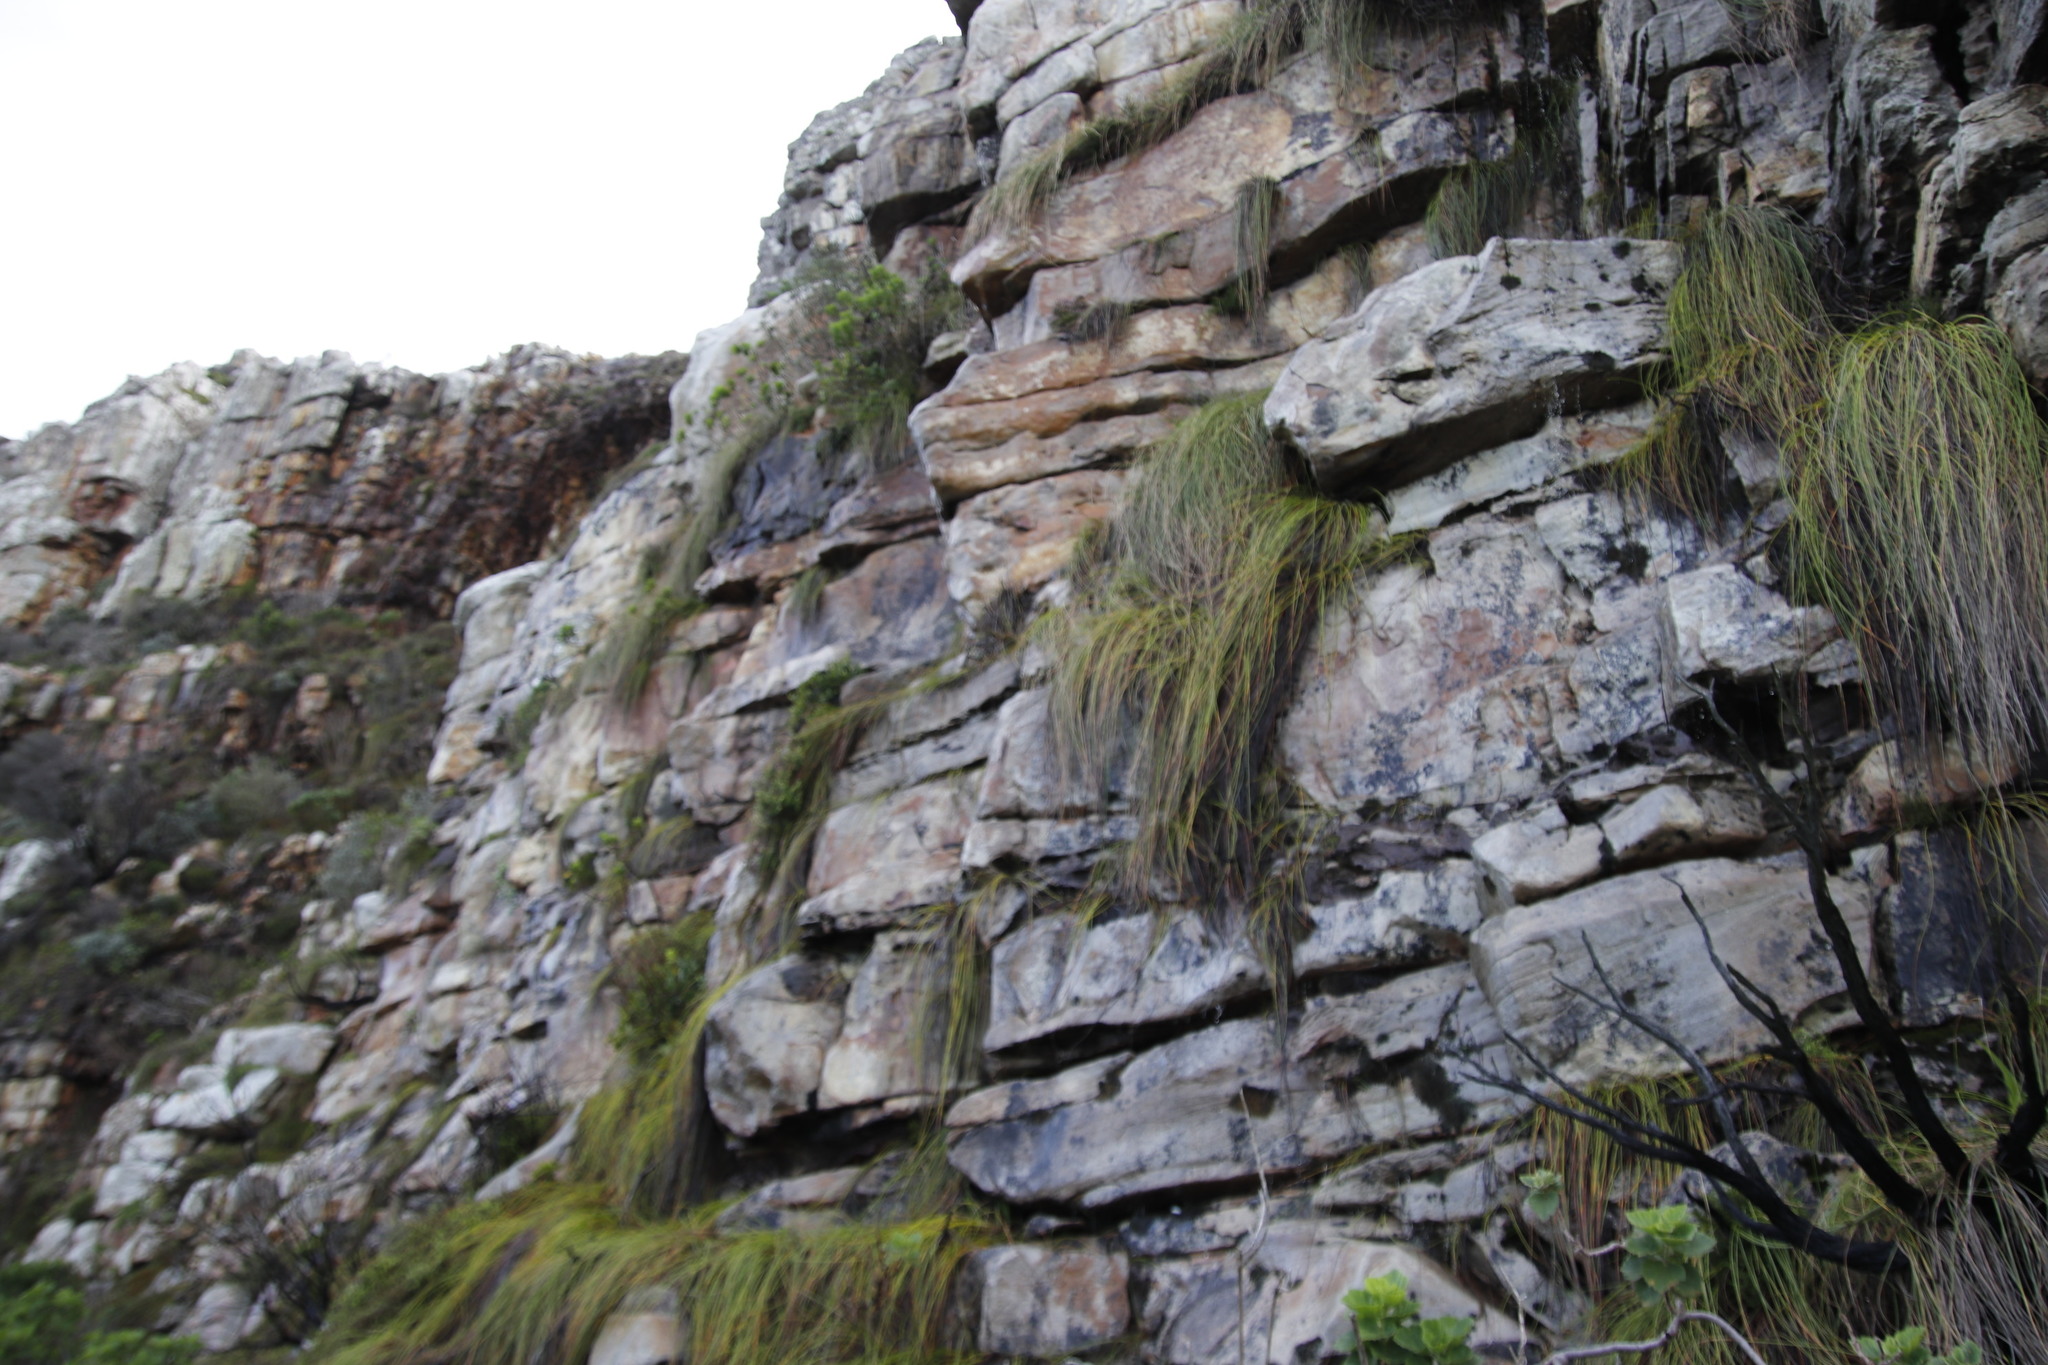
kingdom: Plantae
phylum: Tracheophyta
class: Liliopsida
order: Poales
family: Cyperaceae
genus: Ficinia
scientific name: Ficinia brevifolia
